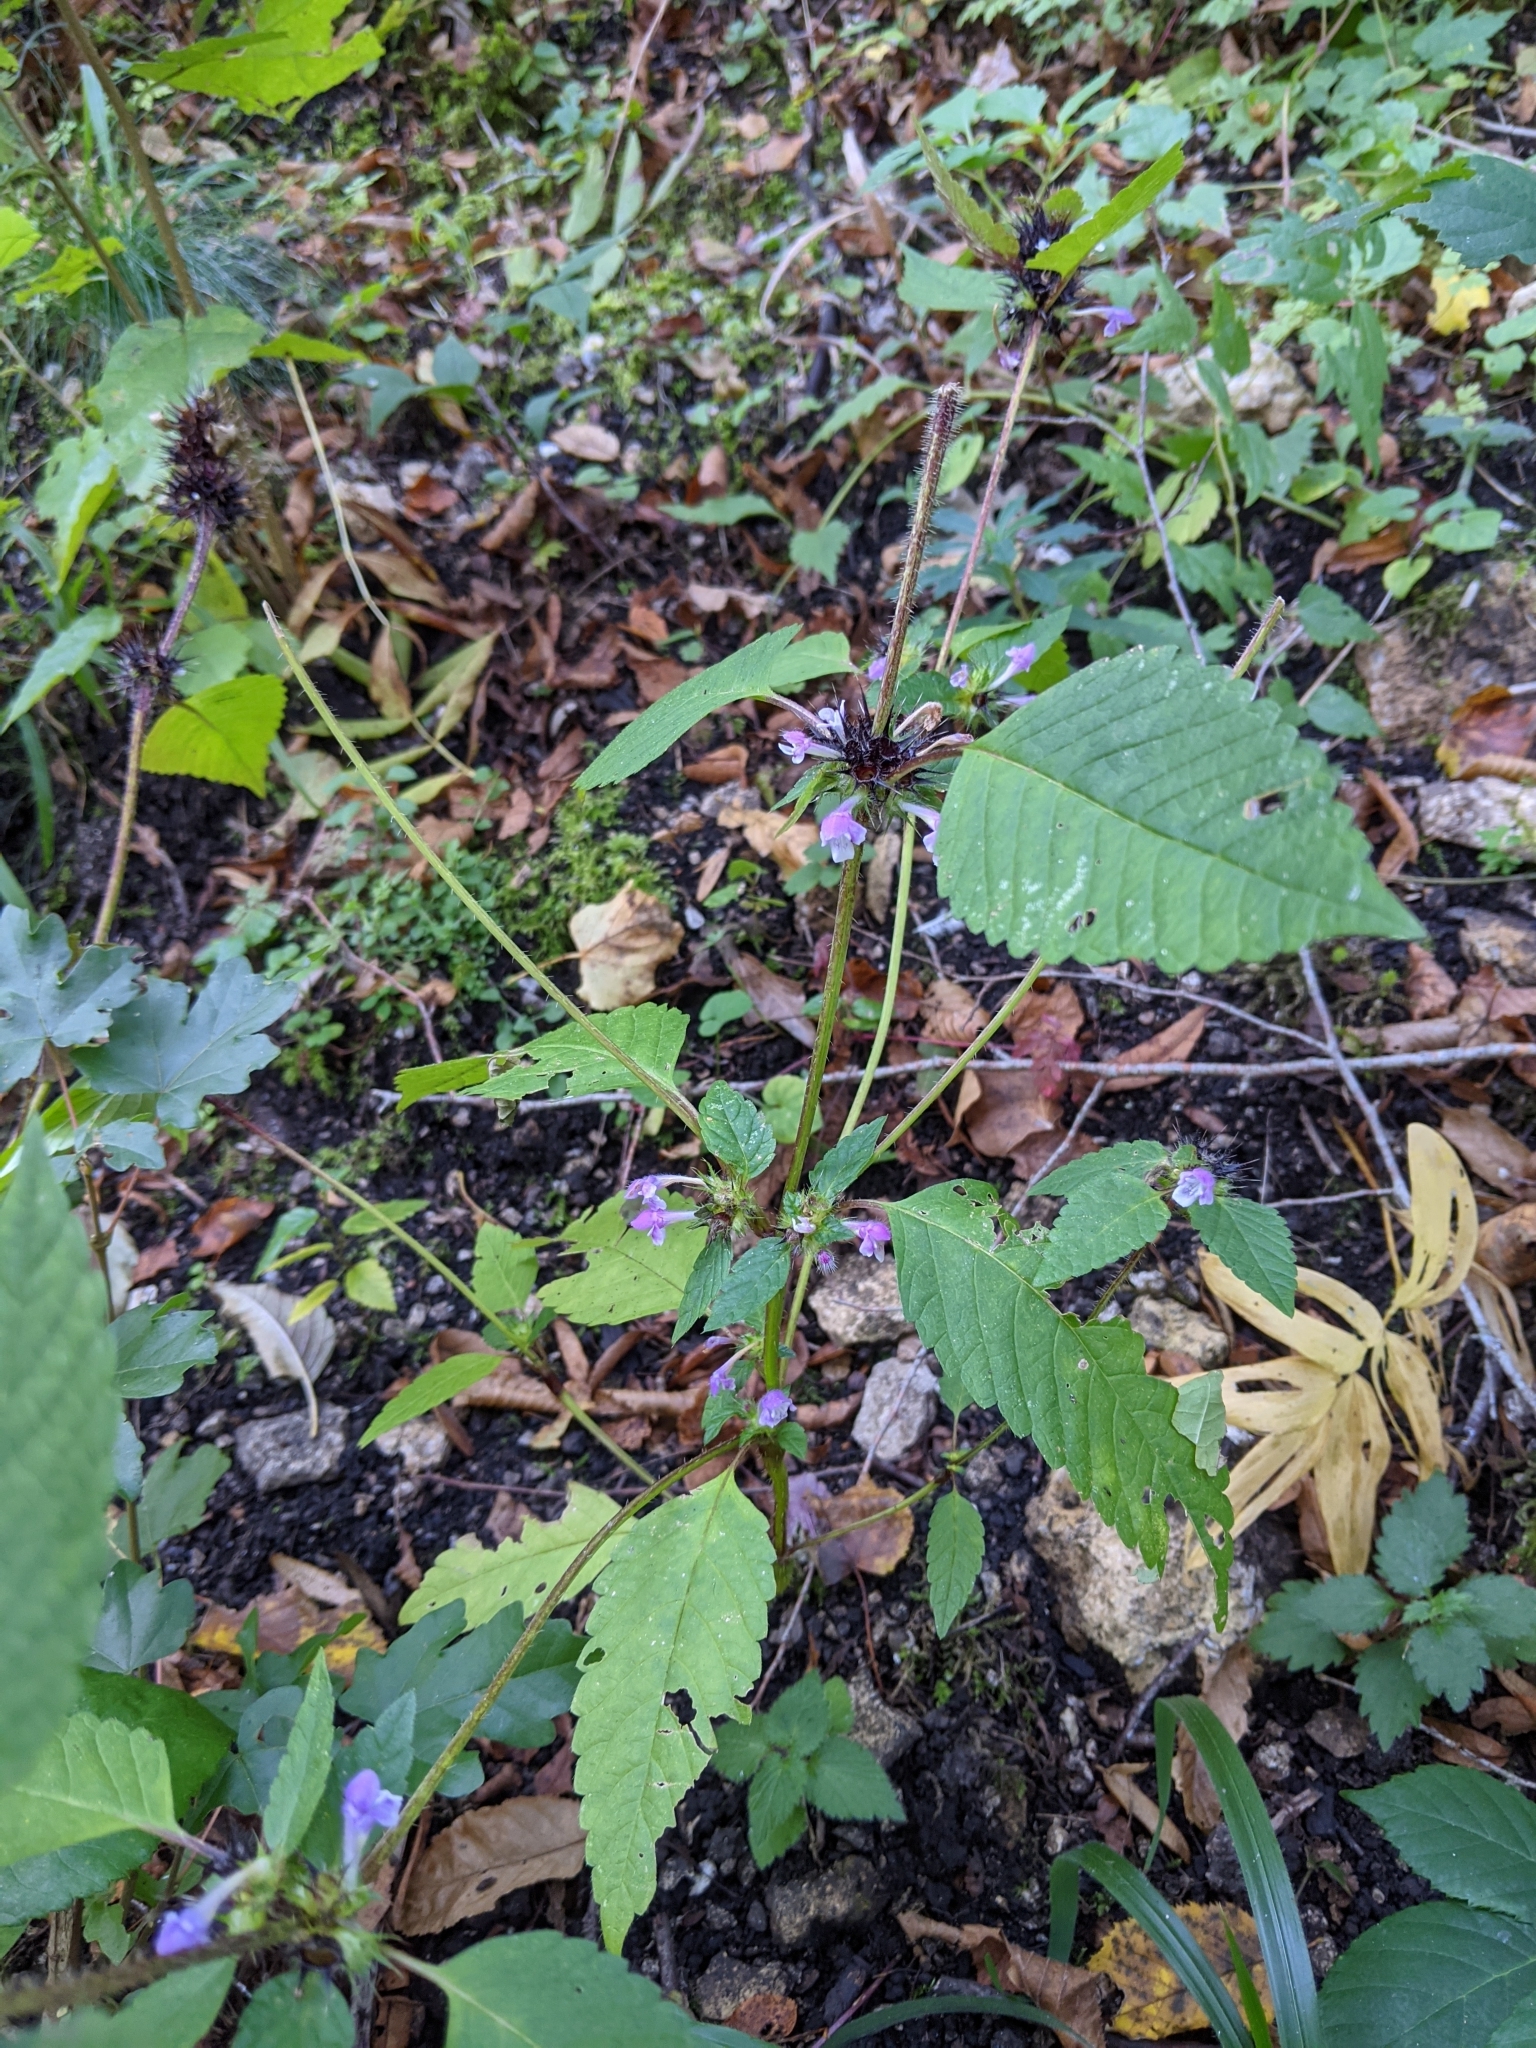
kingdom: Plantae
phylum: Tracheophyta
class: Magnoliopsida
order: Lamiales
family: Lamiaceae
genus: Galeopsis
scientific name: Galeopsis tetrahit
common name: Common hemp-nettle
